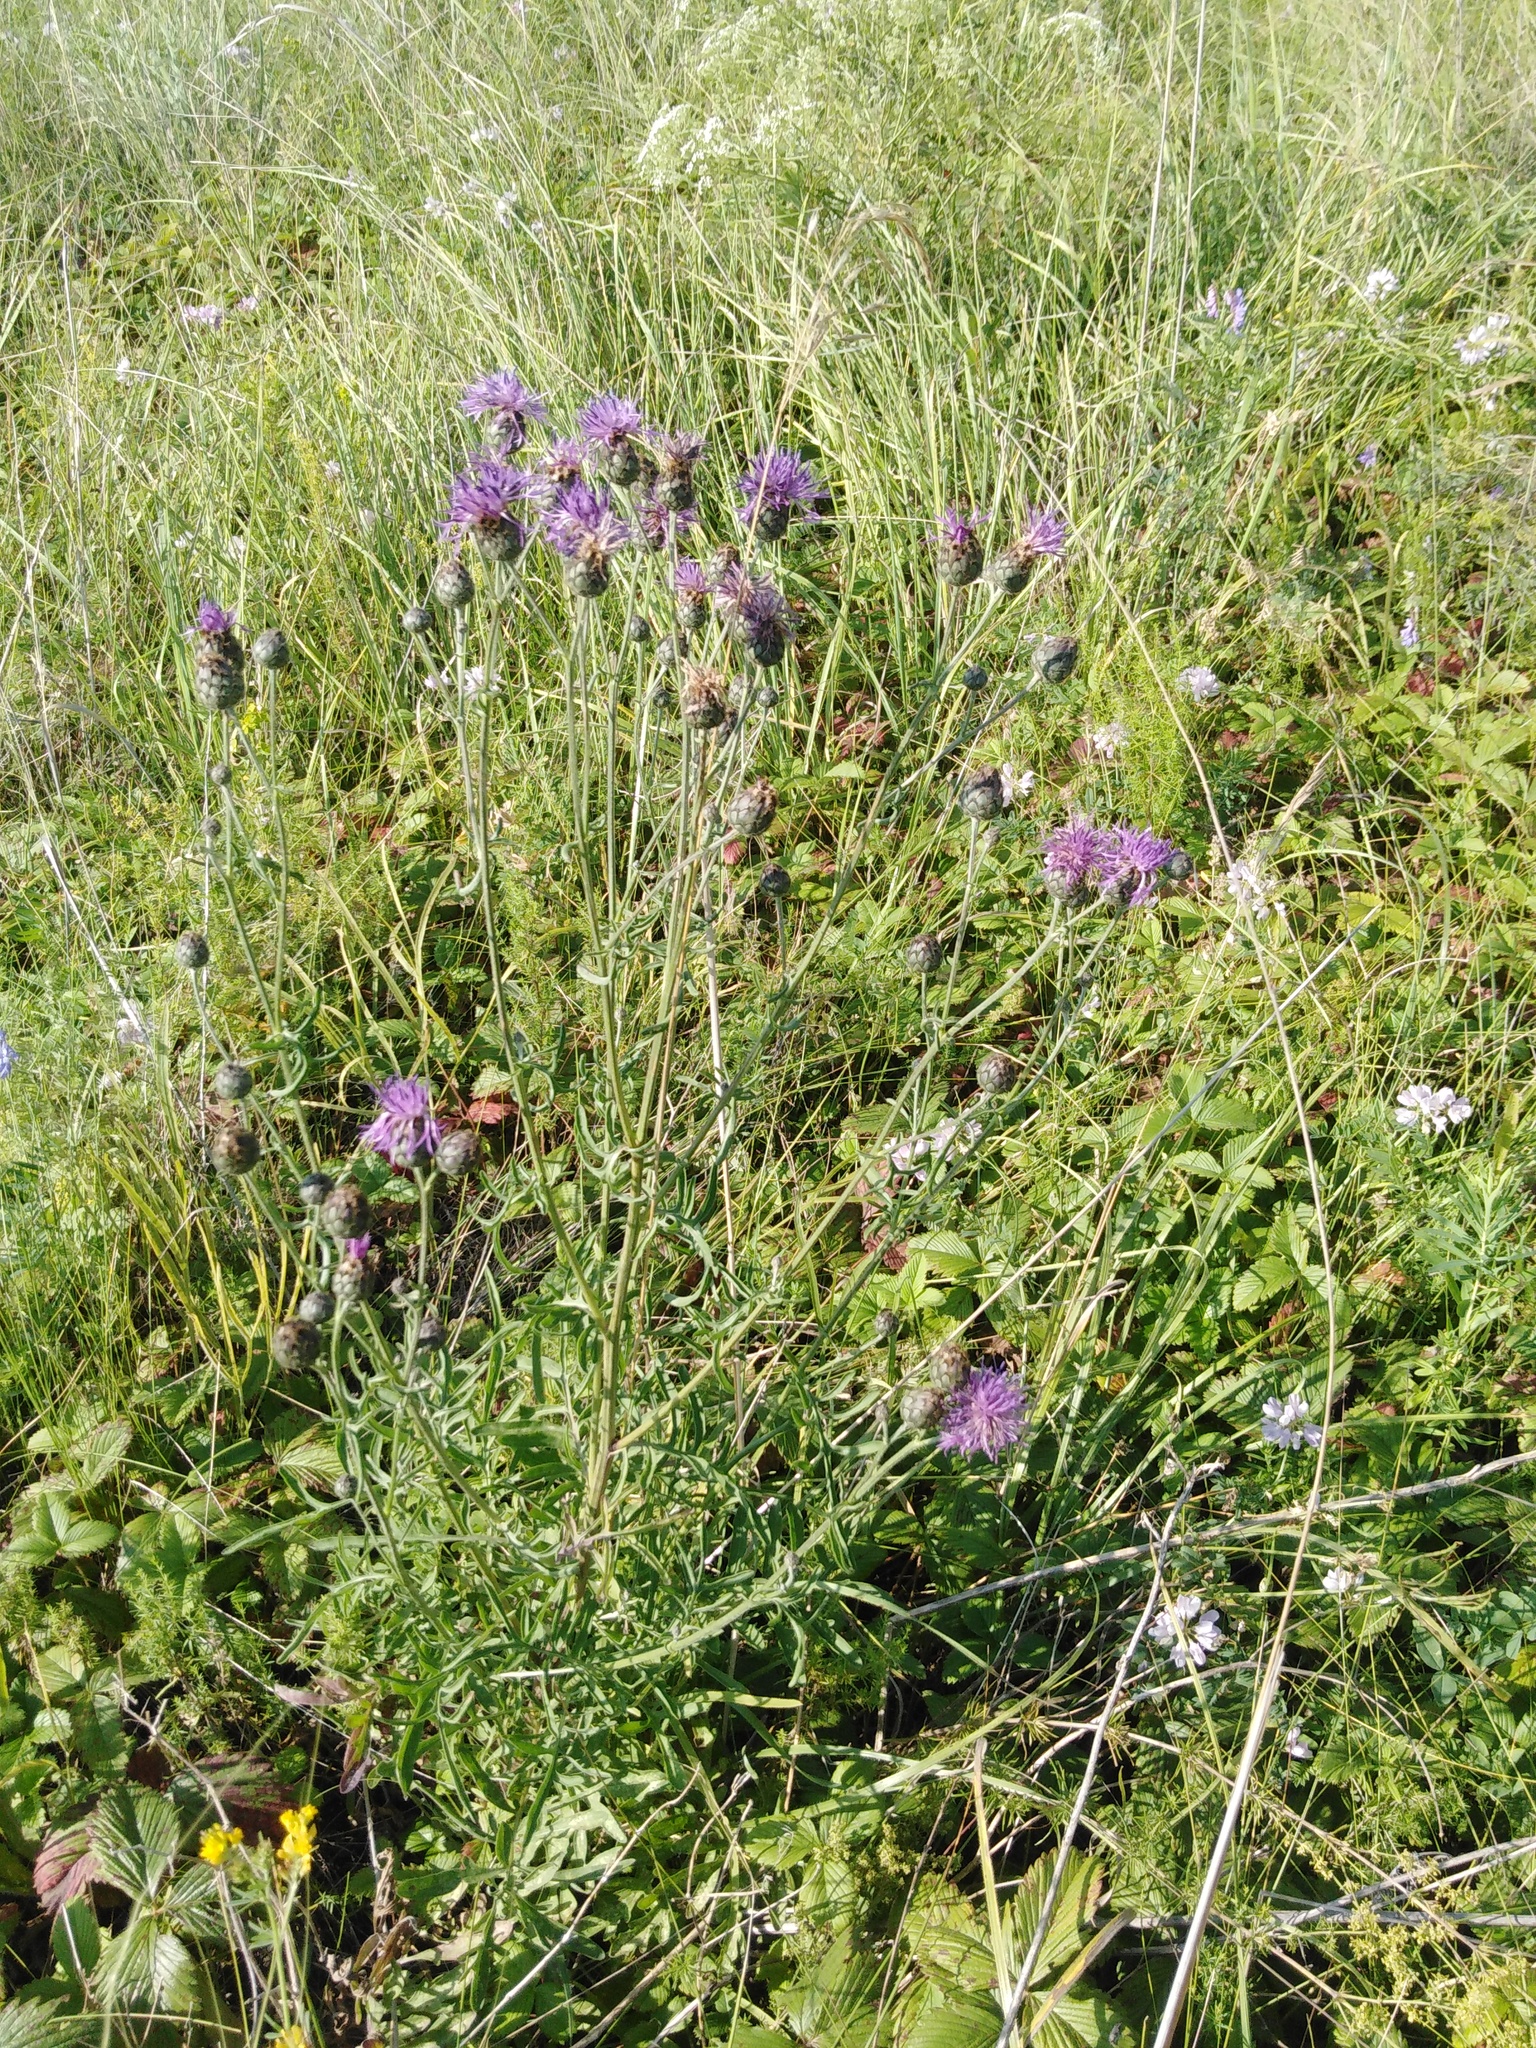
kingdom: Plantae
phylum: Tracheophyta
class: Magnoliopsida
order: Asterales
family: Asteraceae
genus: Centaurea
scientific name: Centaurea scabiosa
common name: Greater knapweed
